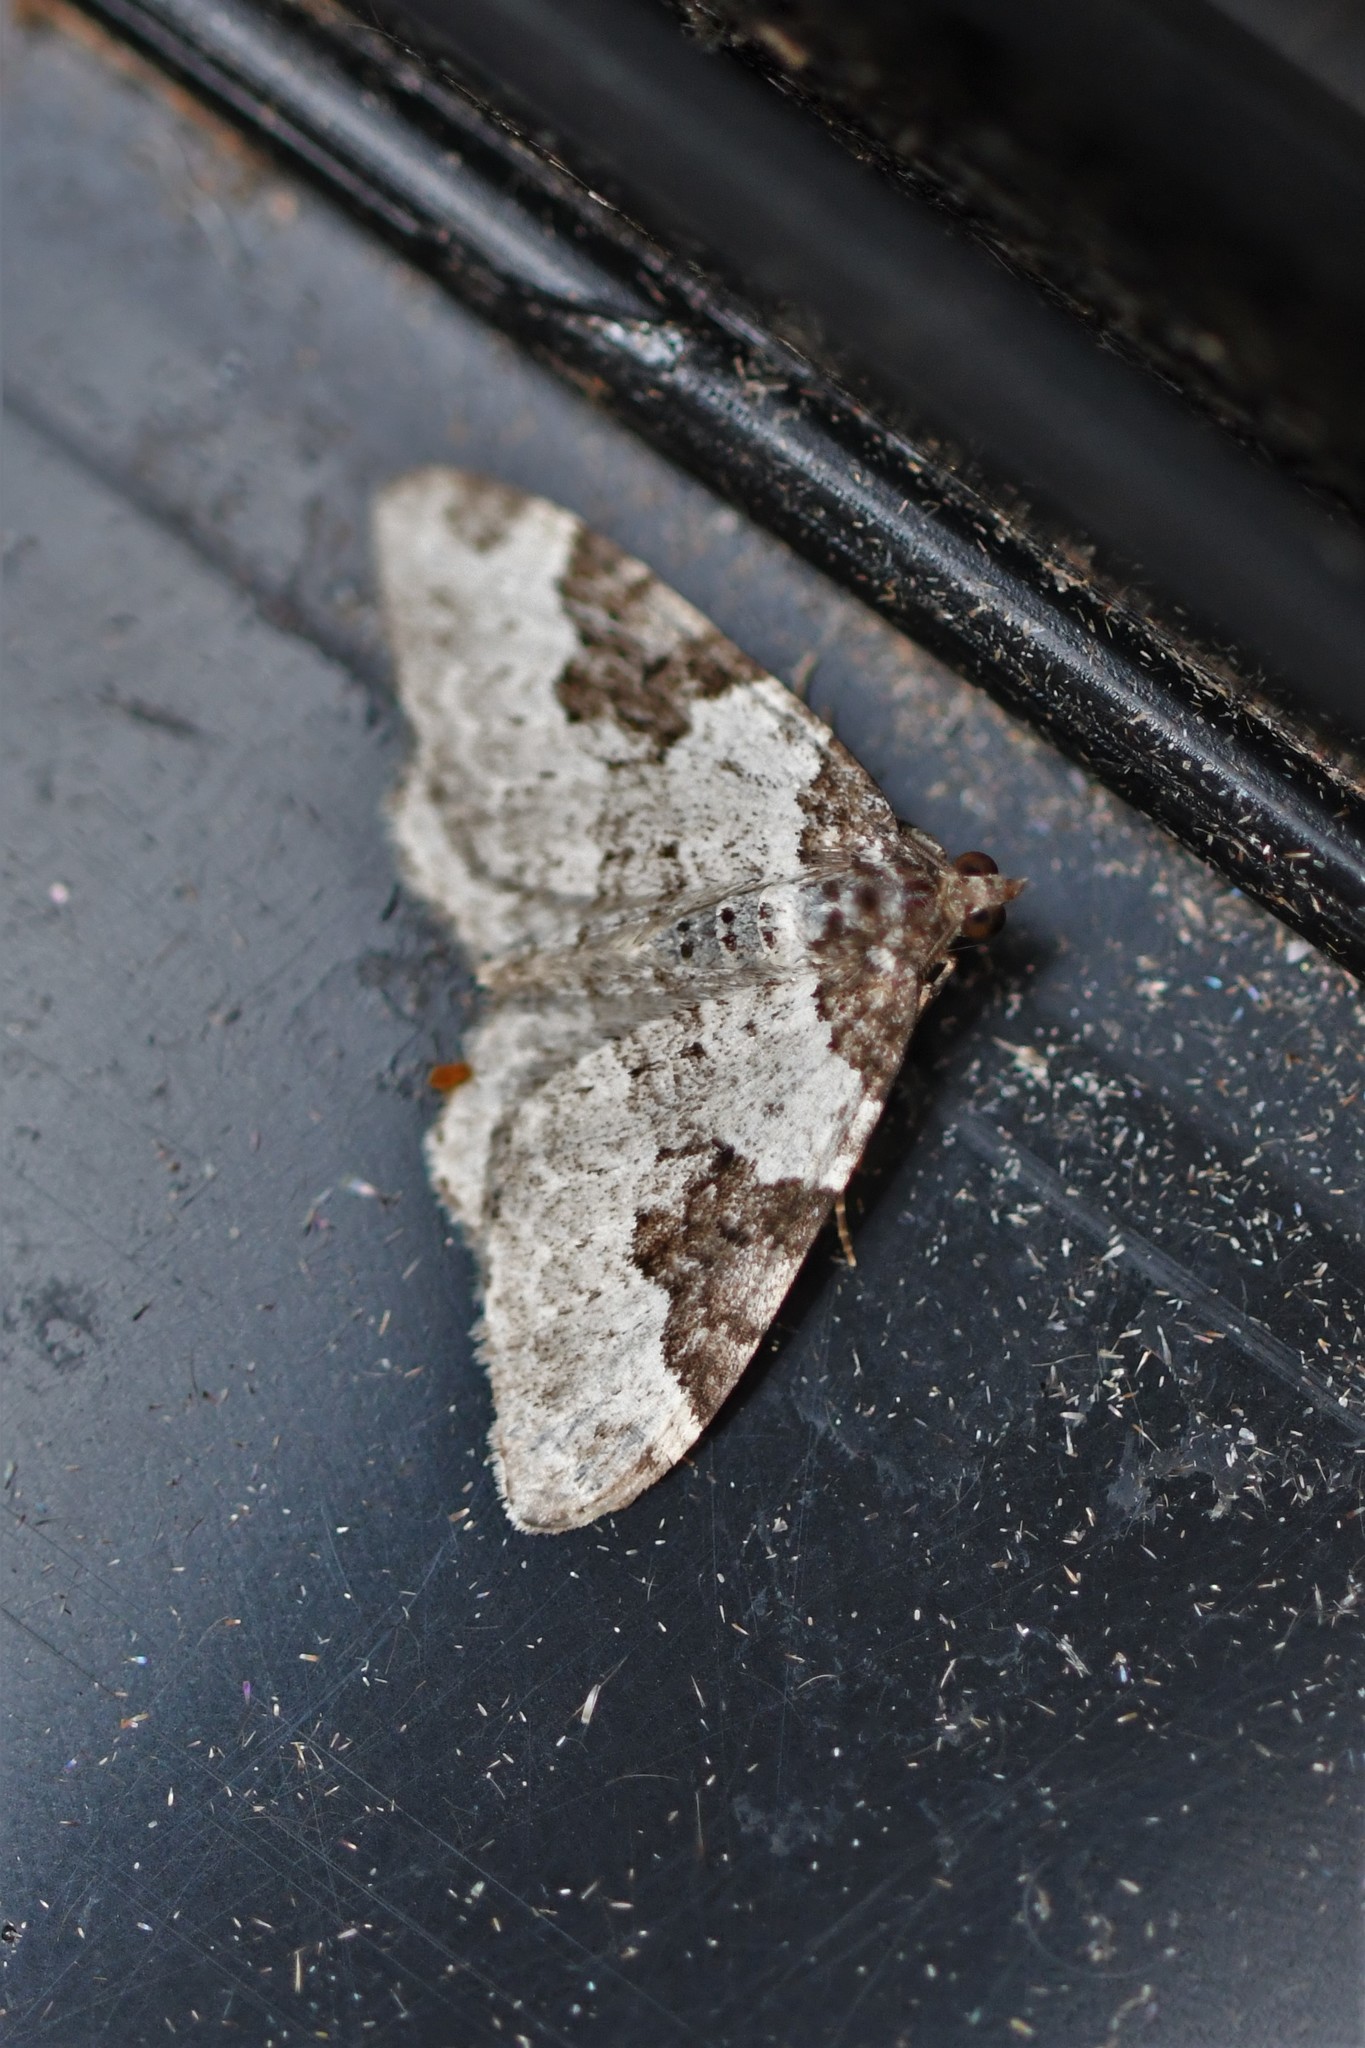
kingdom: Animalia
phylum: Arthropoda
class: Insecta
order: Lepidoptera
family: Geometridae
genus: Xanthorhoe
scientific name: Xanthorhoe fluctuata
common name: Garden carpet
